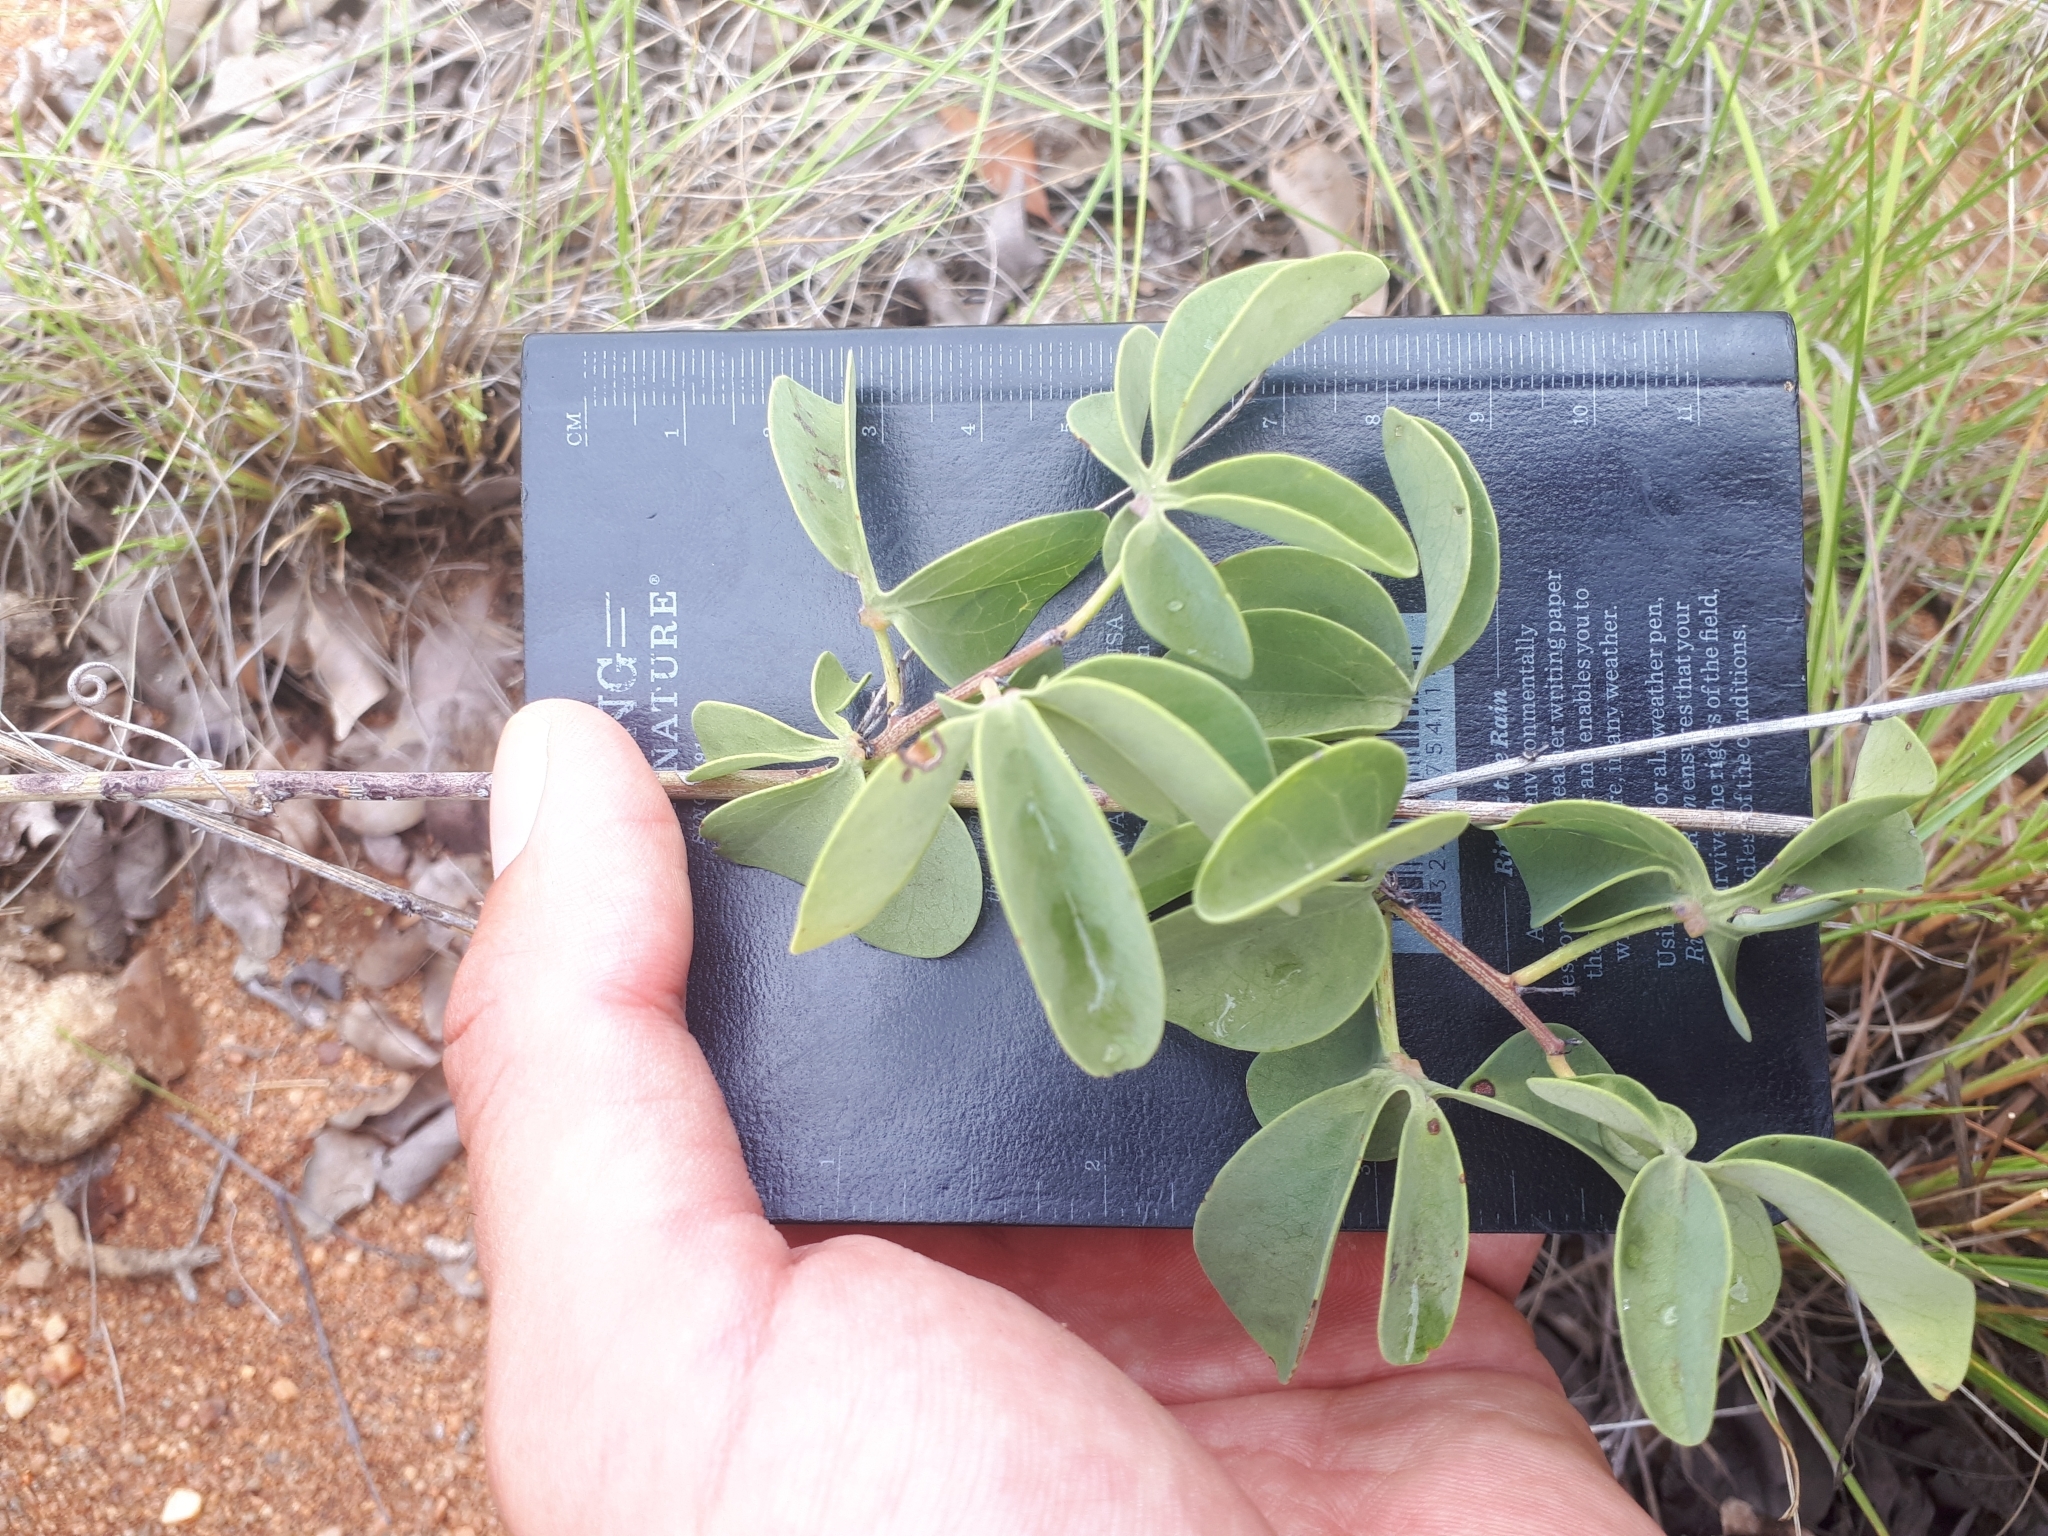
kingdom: Plantae
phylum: Tracheophyta
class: Magnoliopsida
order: Malpighiales
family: Passifloraceae
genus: Adenia
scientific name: Adenia glauca
